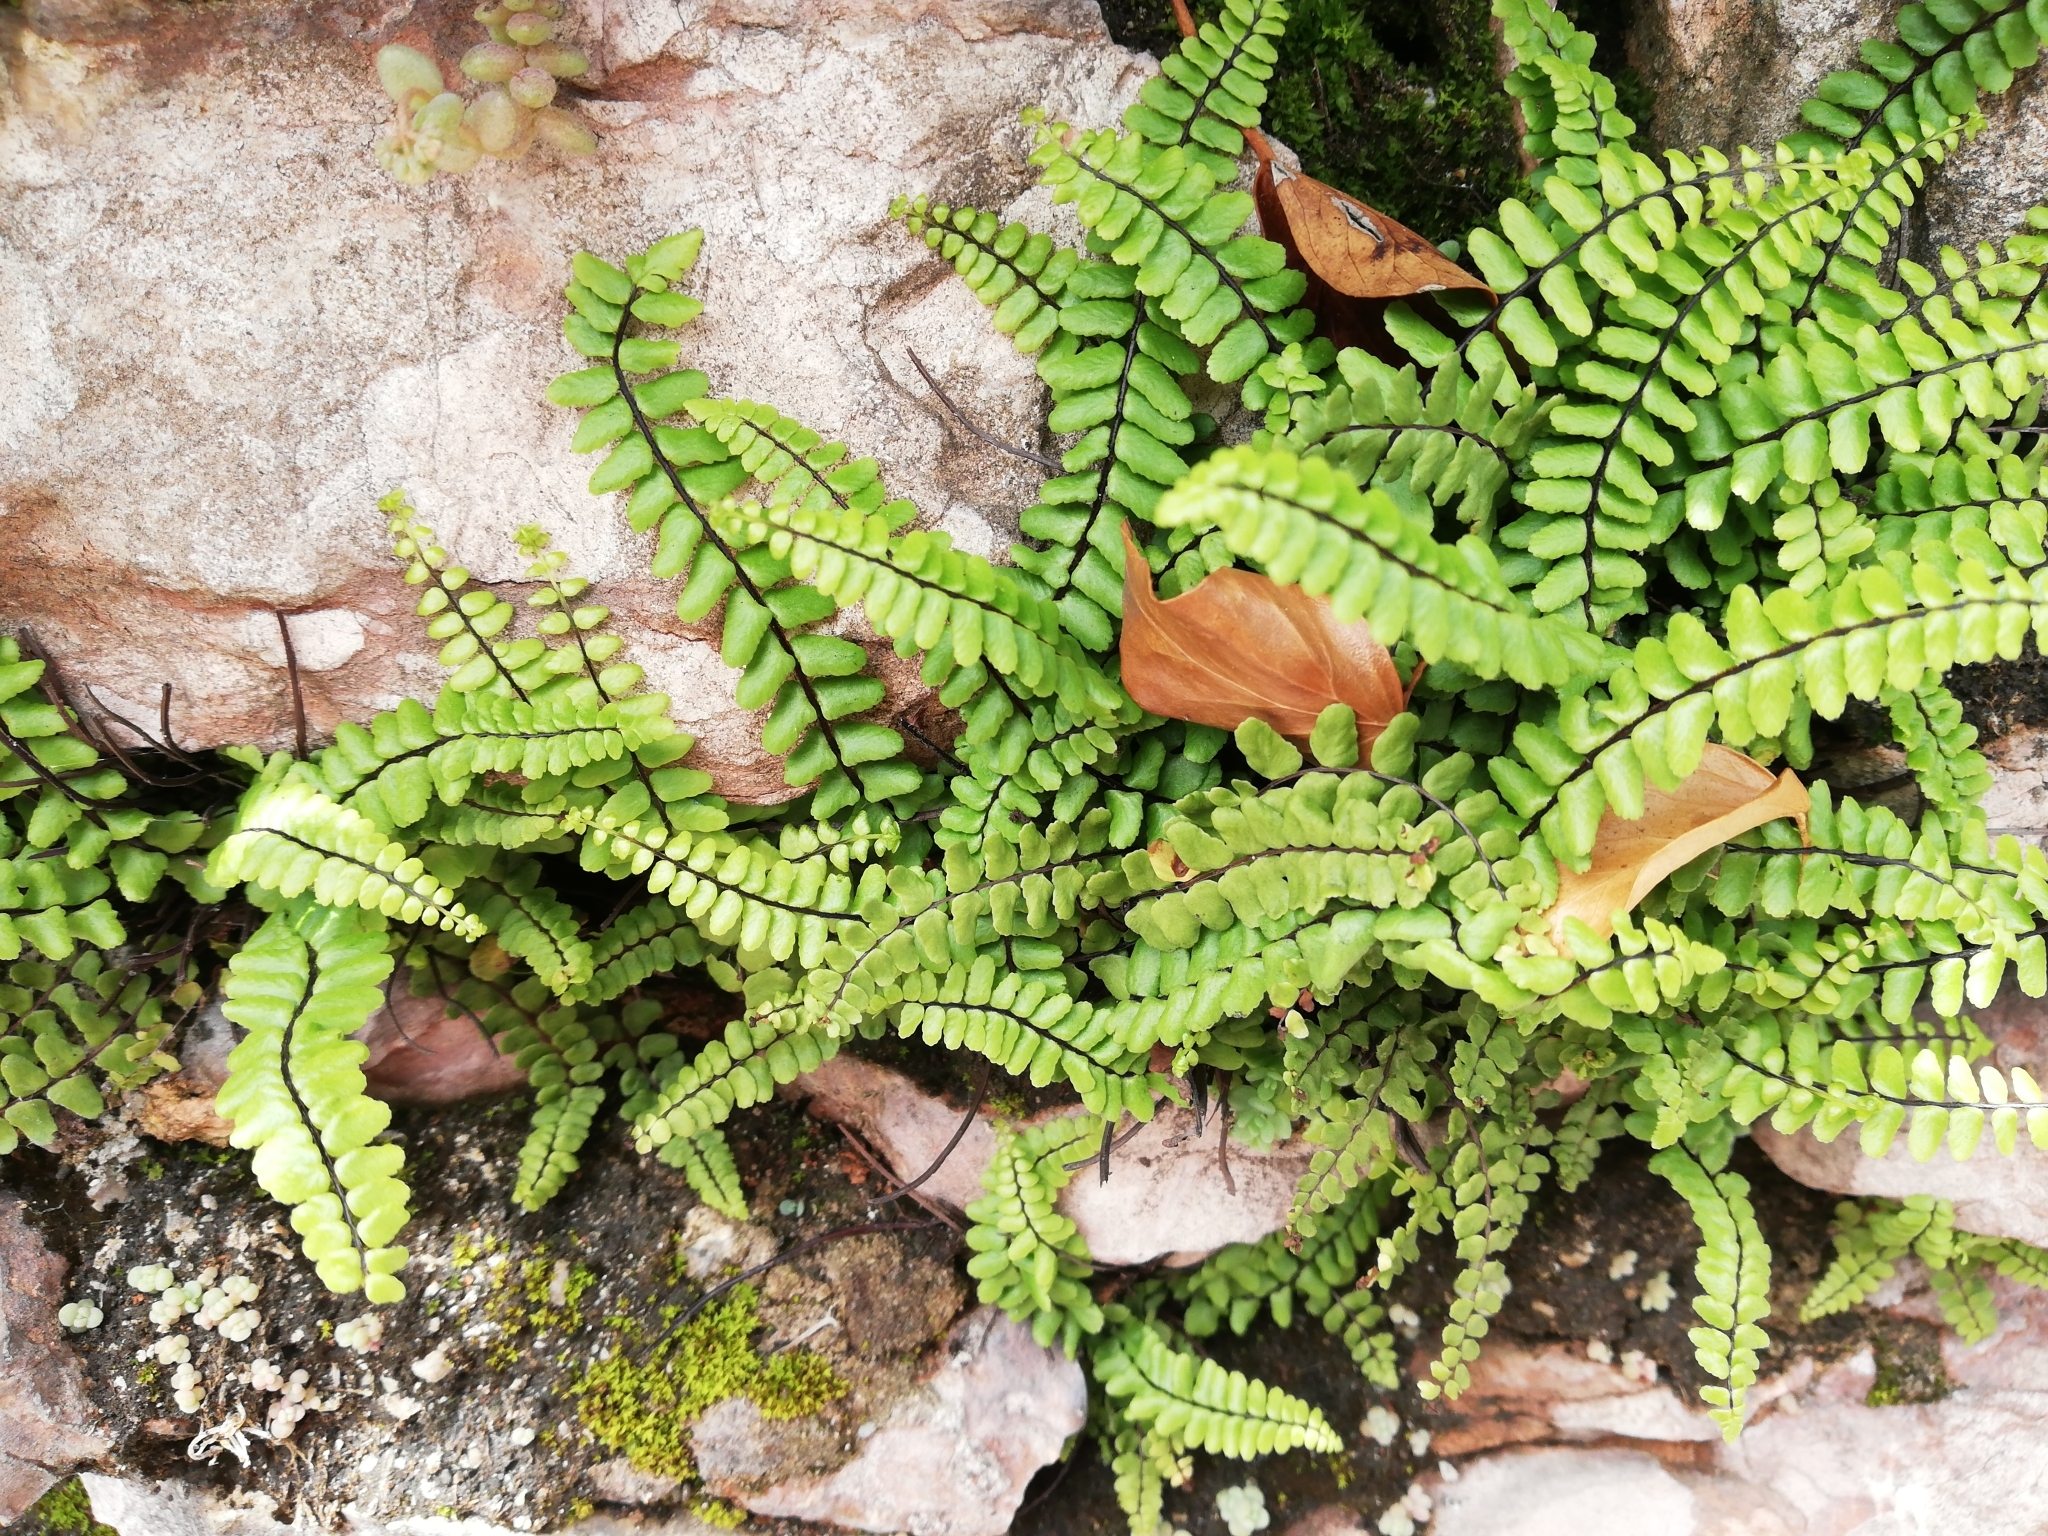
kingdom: Plantae
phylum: Tracheophyta
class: Polypodiopsida
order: Polypodiales
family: Aspleniaceae
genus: Asplenium
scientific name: Asplenium trichomanes
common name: Maidenhair spleenwort
